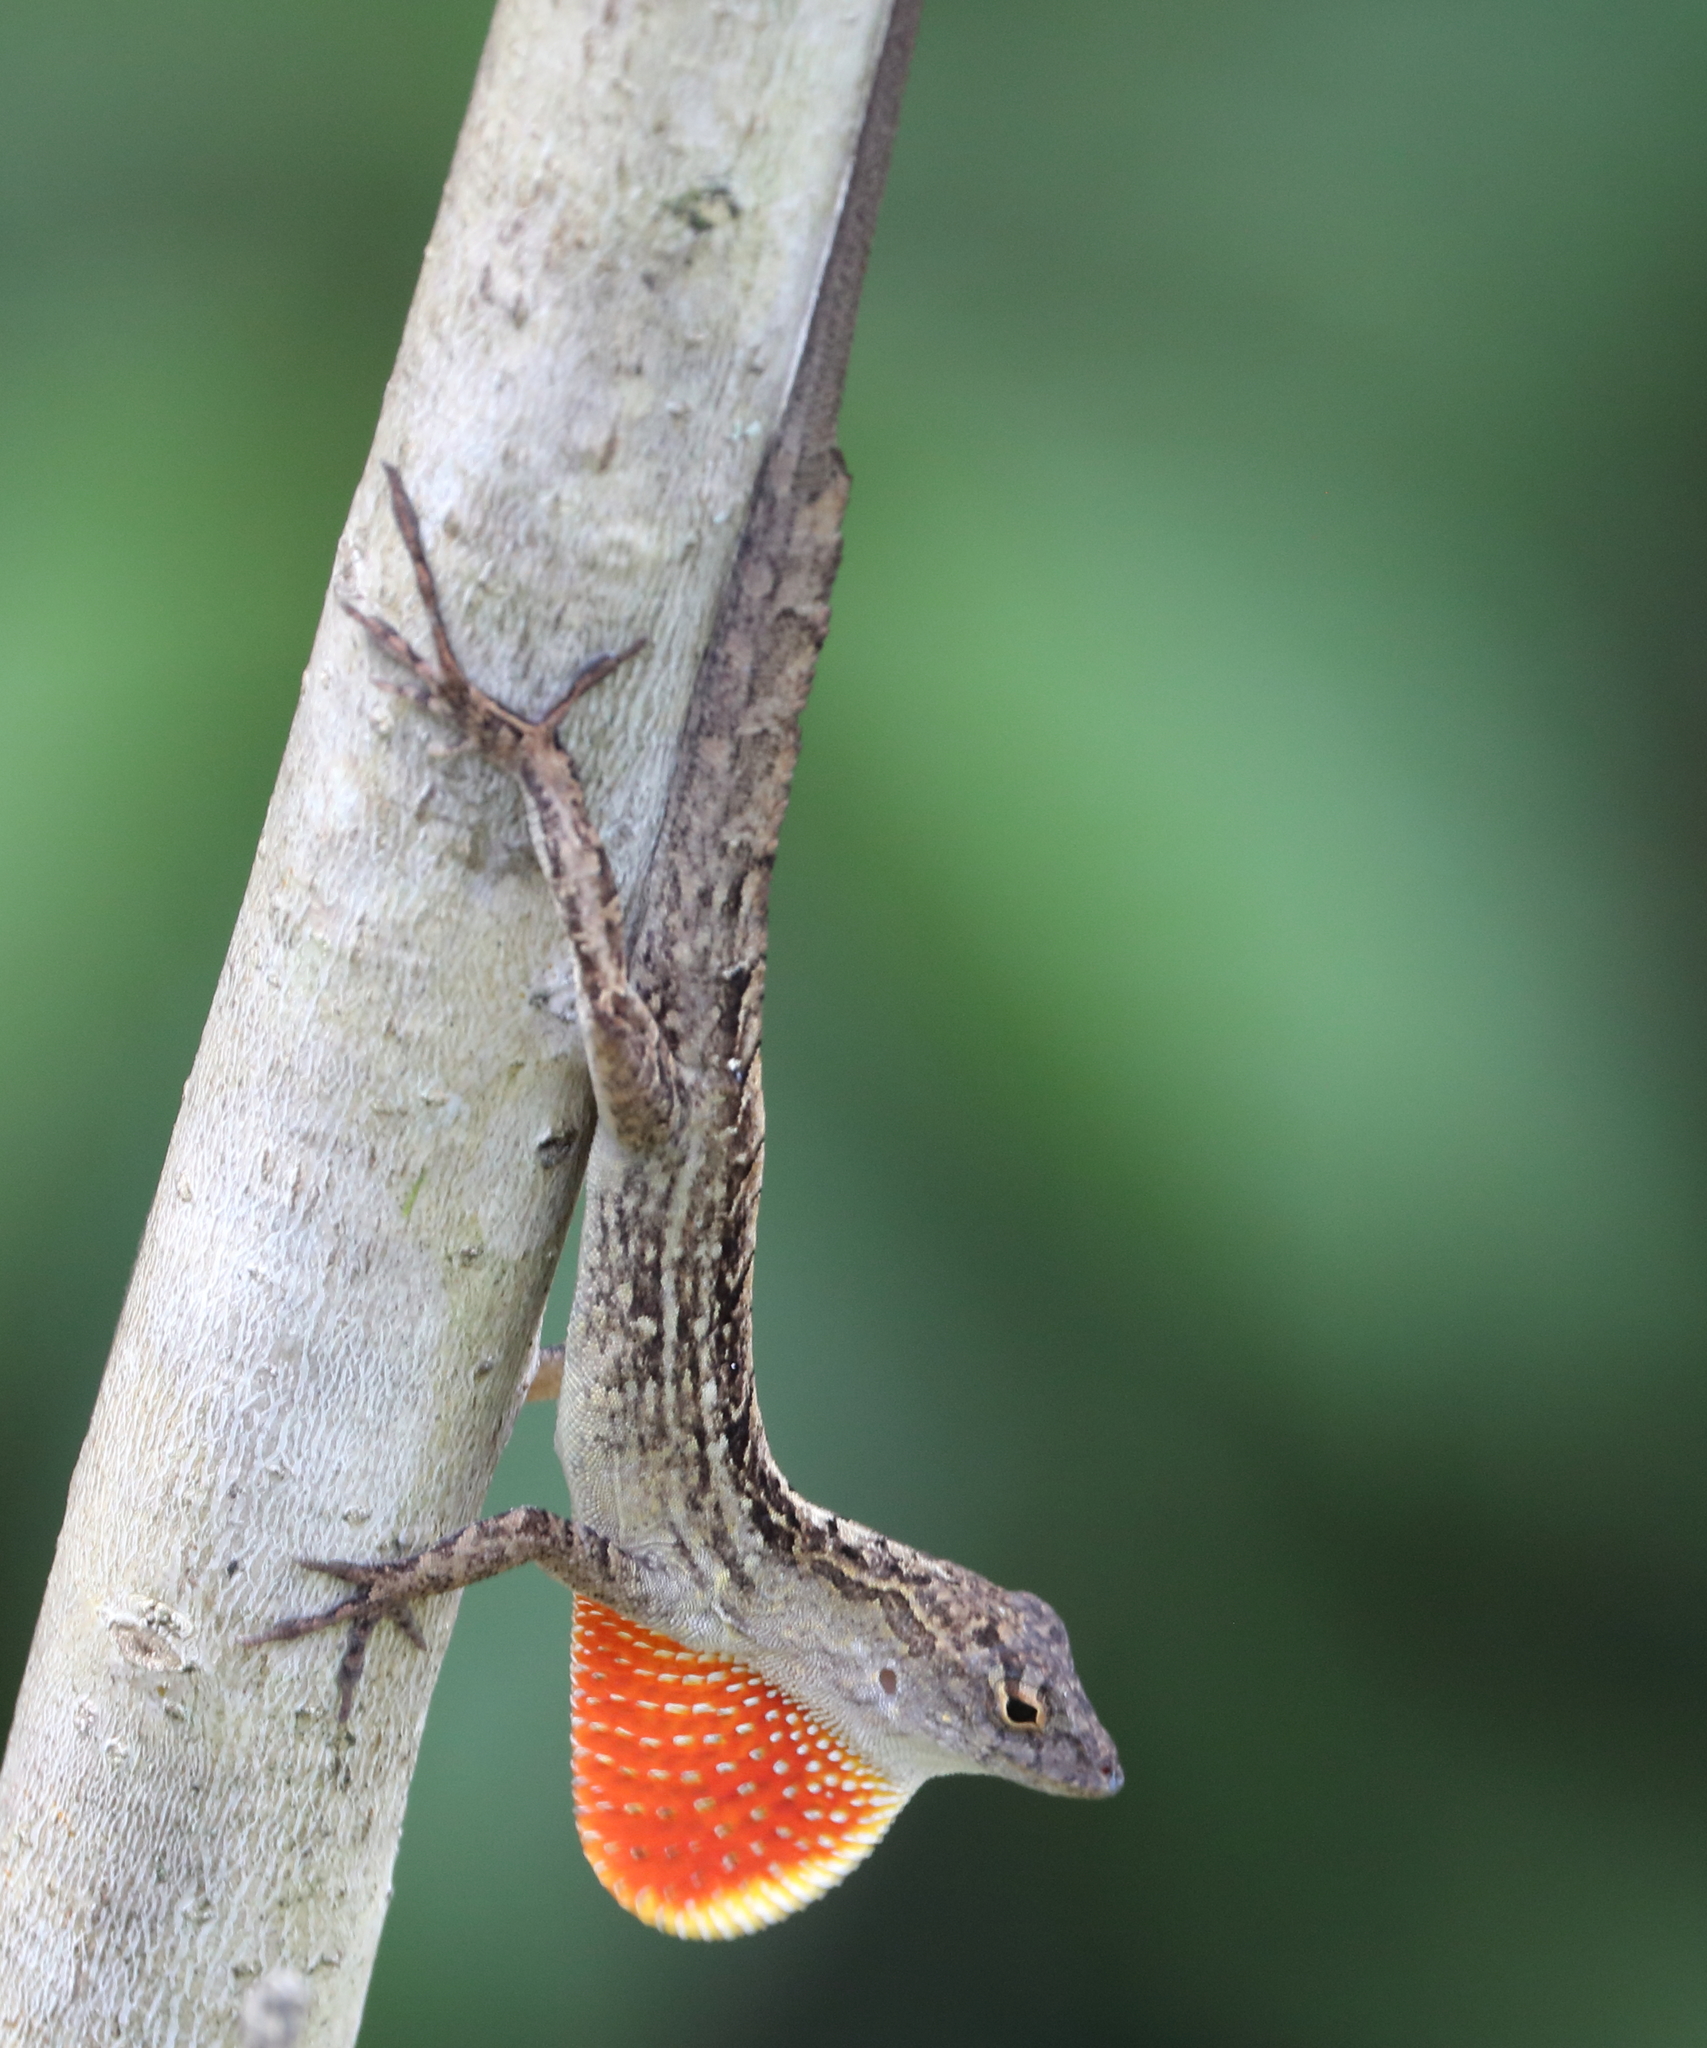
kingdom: Animalia
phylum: Chordata
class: Squamata
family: Dactyloidae
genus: Anolis
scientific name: Anolis sagrei
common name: Brown anole
